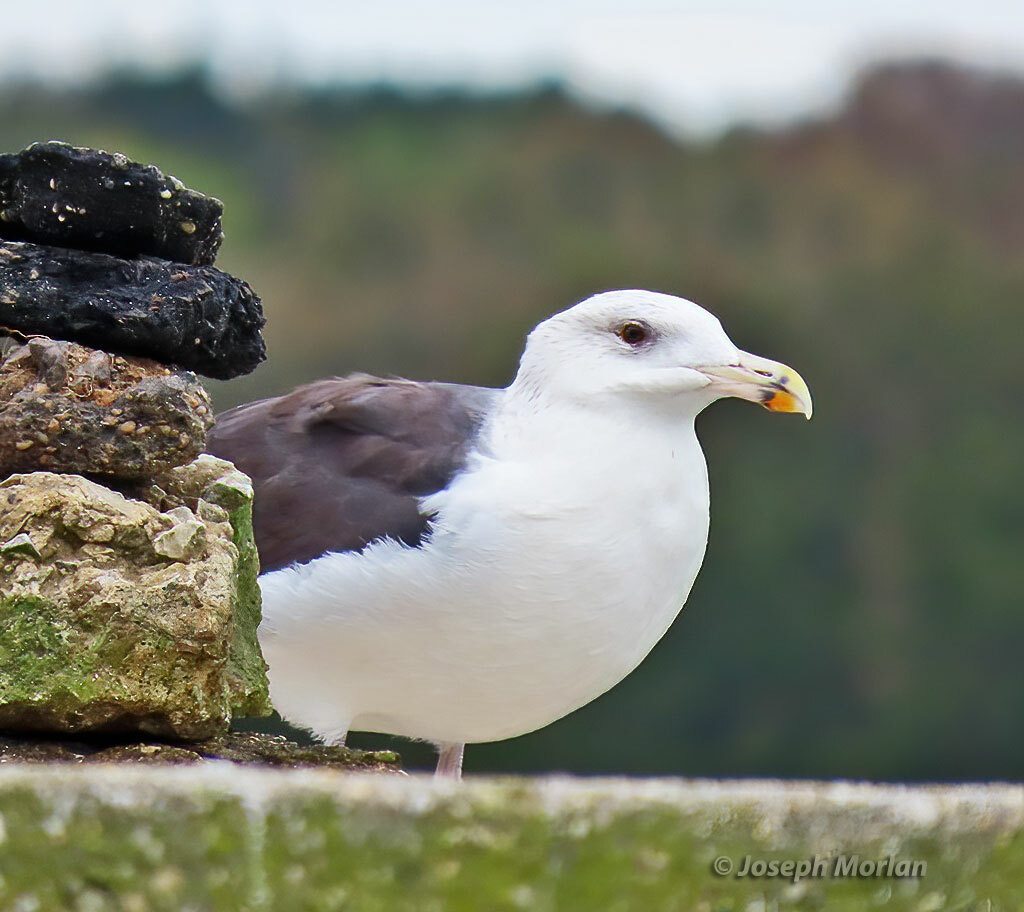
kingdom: Animalia
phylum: Chordata
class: Aves
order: Charadriiformes
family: Laridae
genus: Larus
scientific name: Larus marinus
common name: Great black-backed gull
